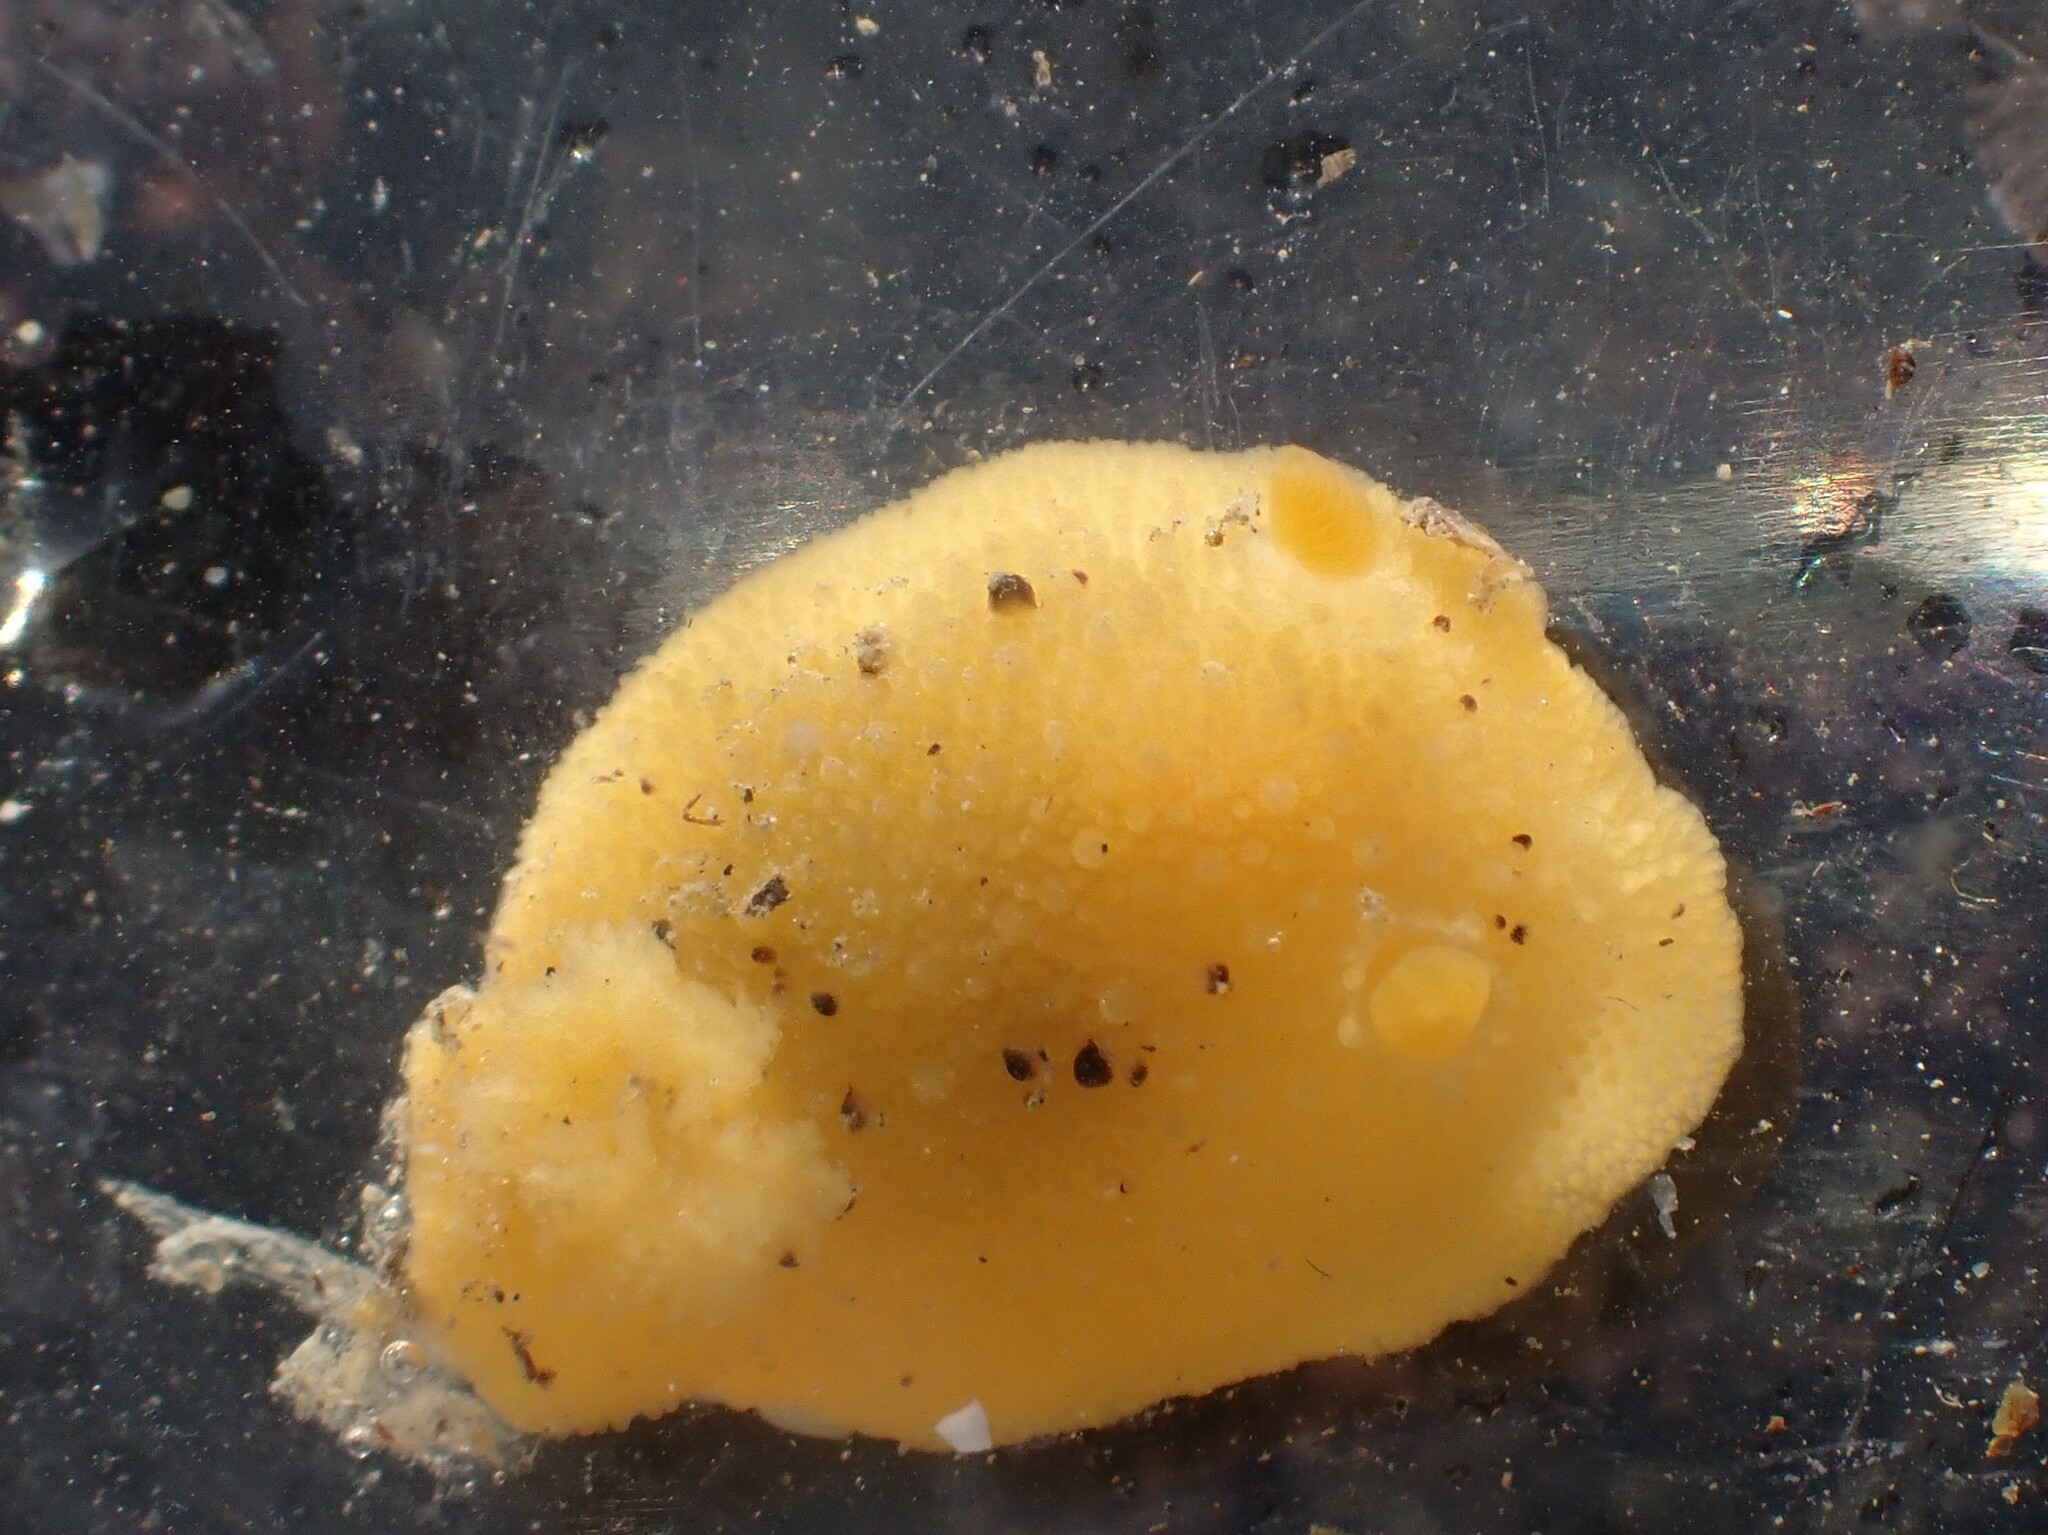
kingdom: Animalia
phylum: Mollusca
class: Gastropoda
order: Nudibranchia
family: Dorididae
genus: Doris
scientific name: Doris montereyensis
